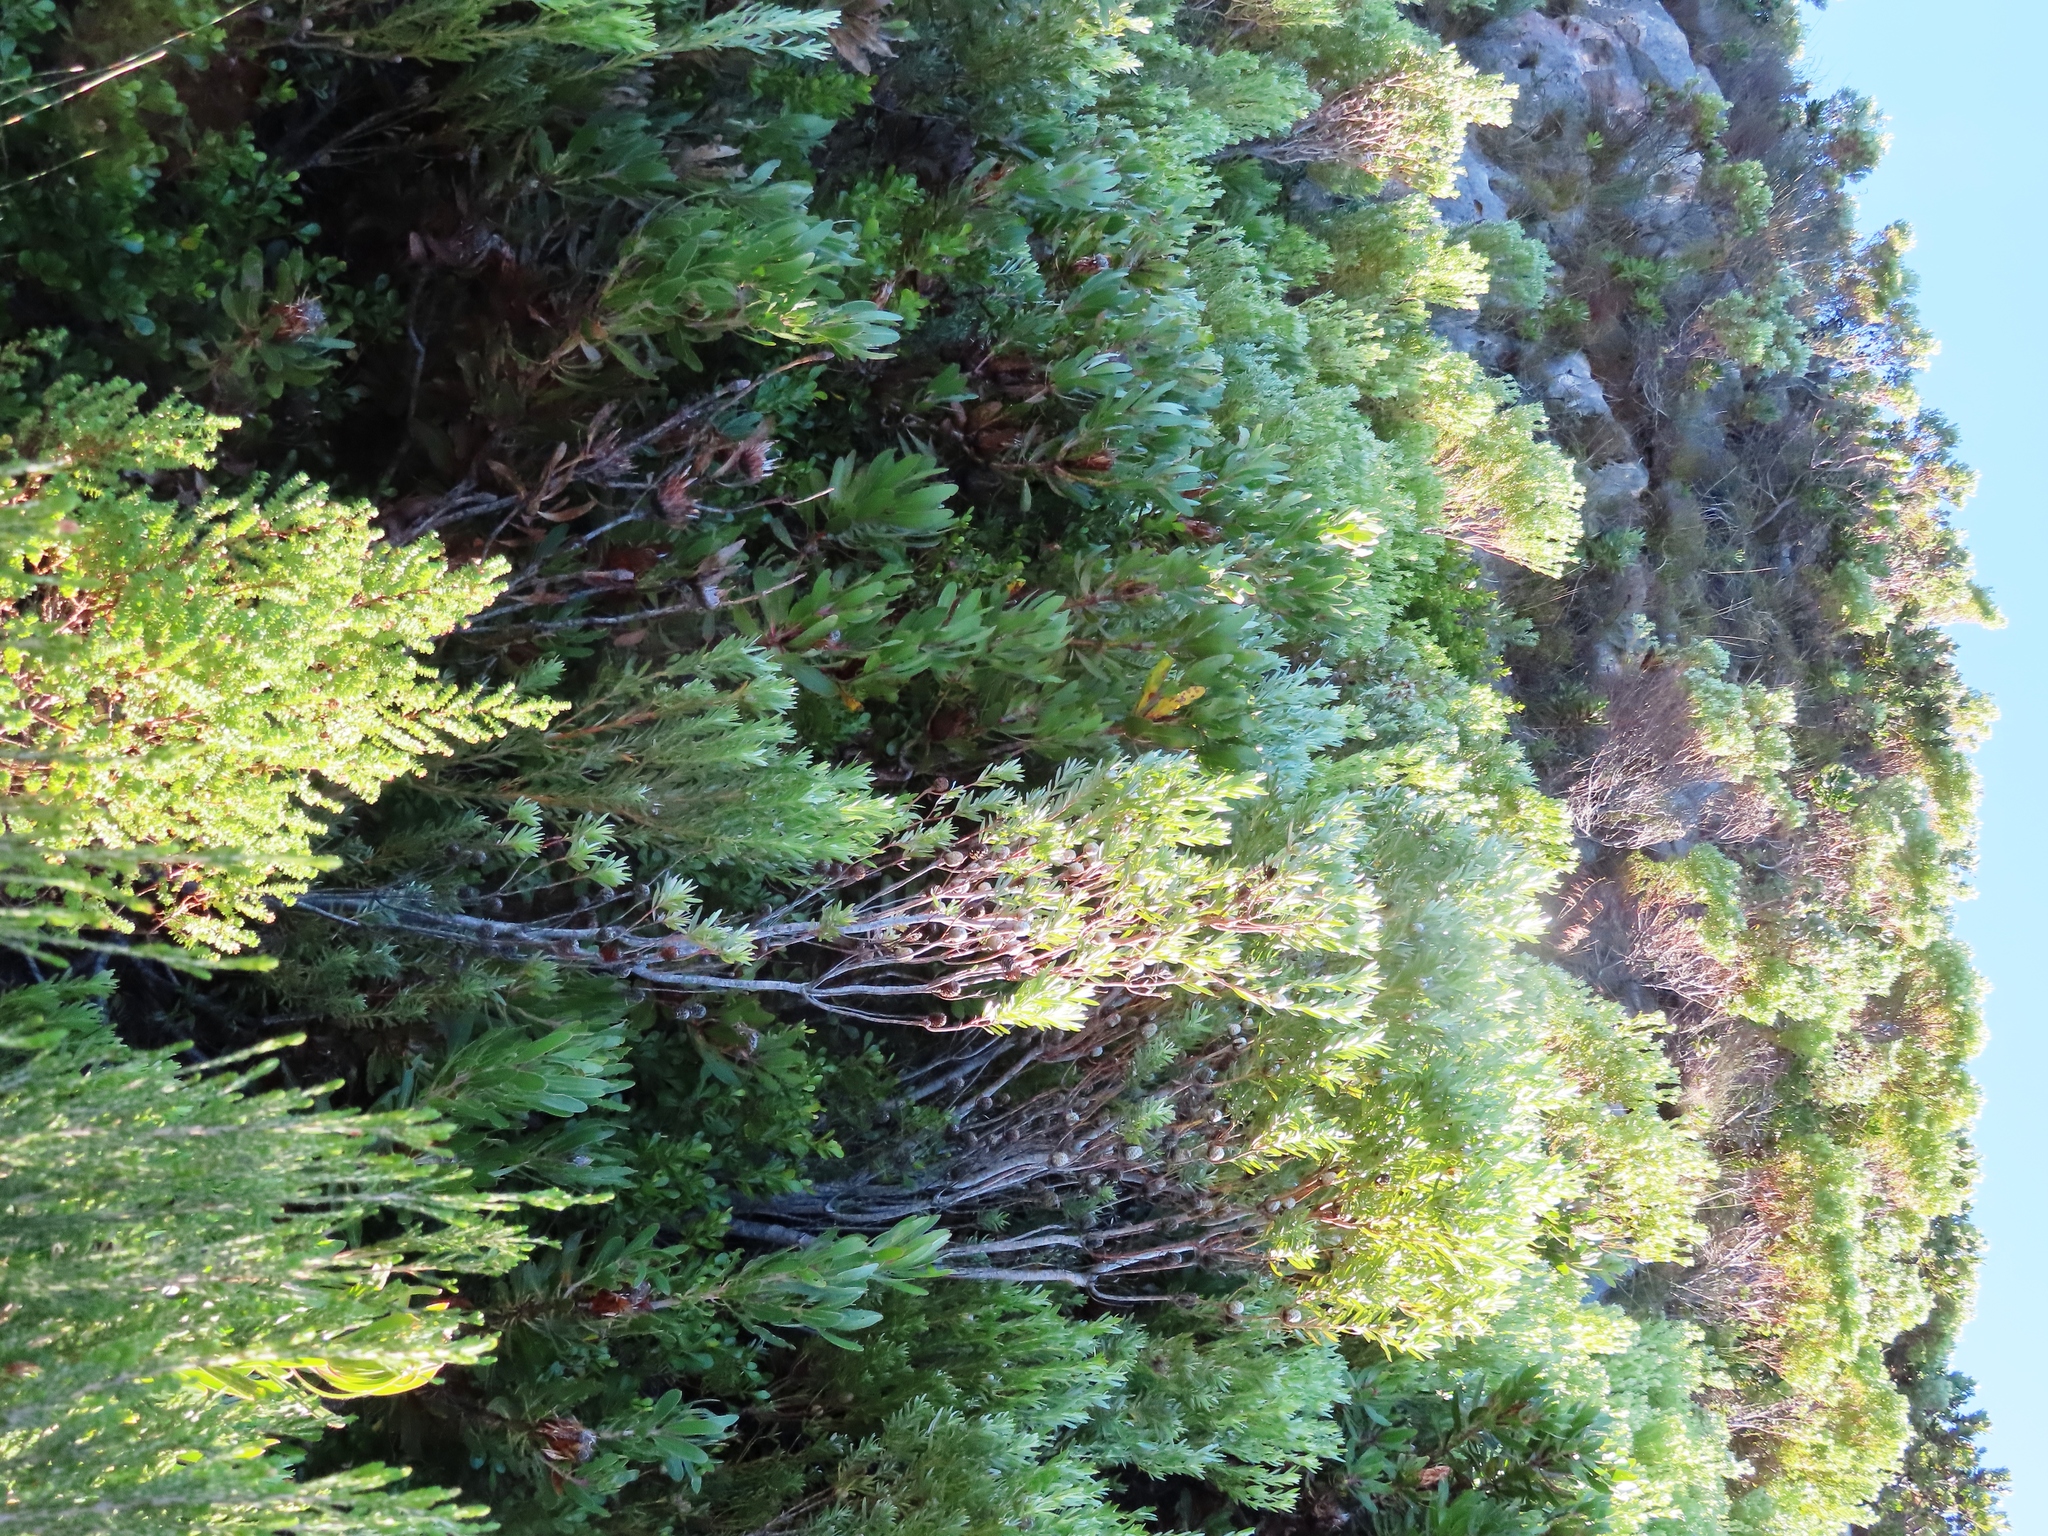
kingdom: Plantae
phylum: Tracheophyta
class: Magnoliopsida
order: Proteales
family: Proteaceae
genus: Leucadendron
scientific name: Leucadendron meridianum
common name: Limestone conebush
